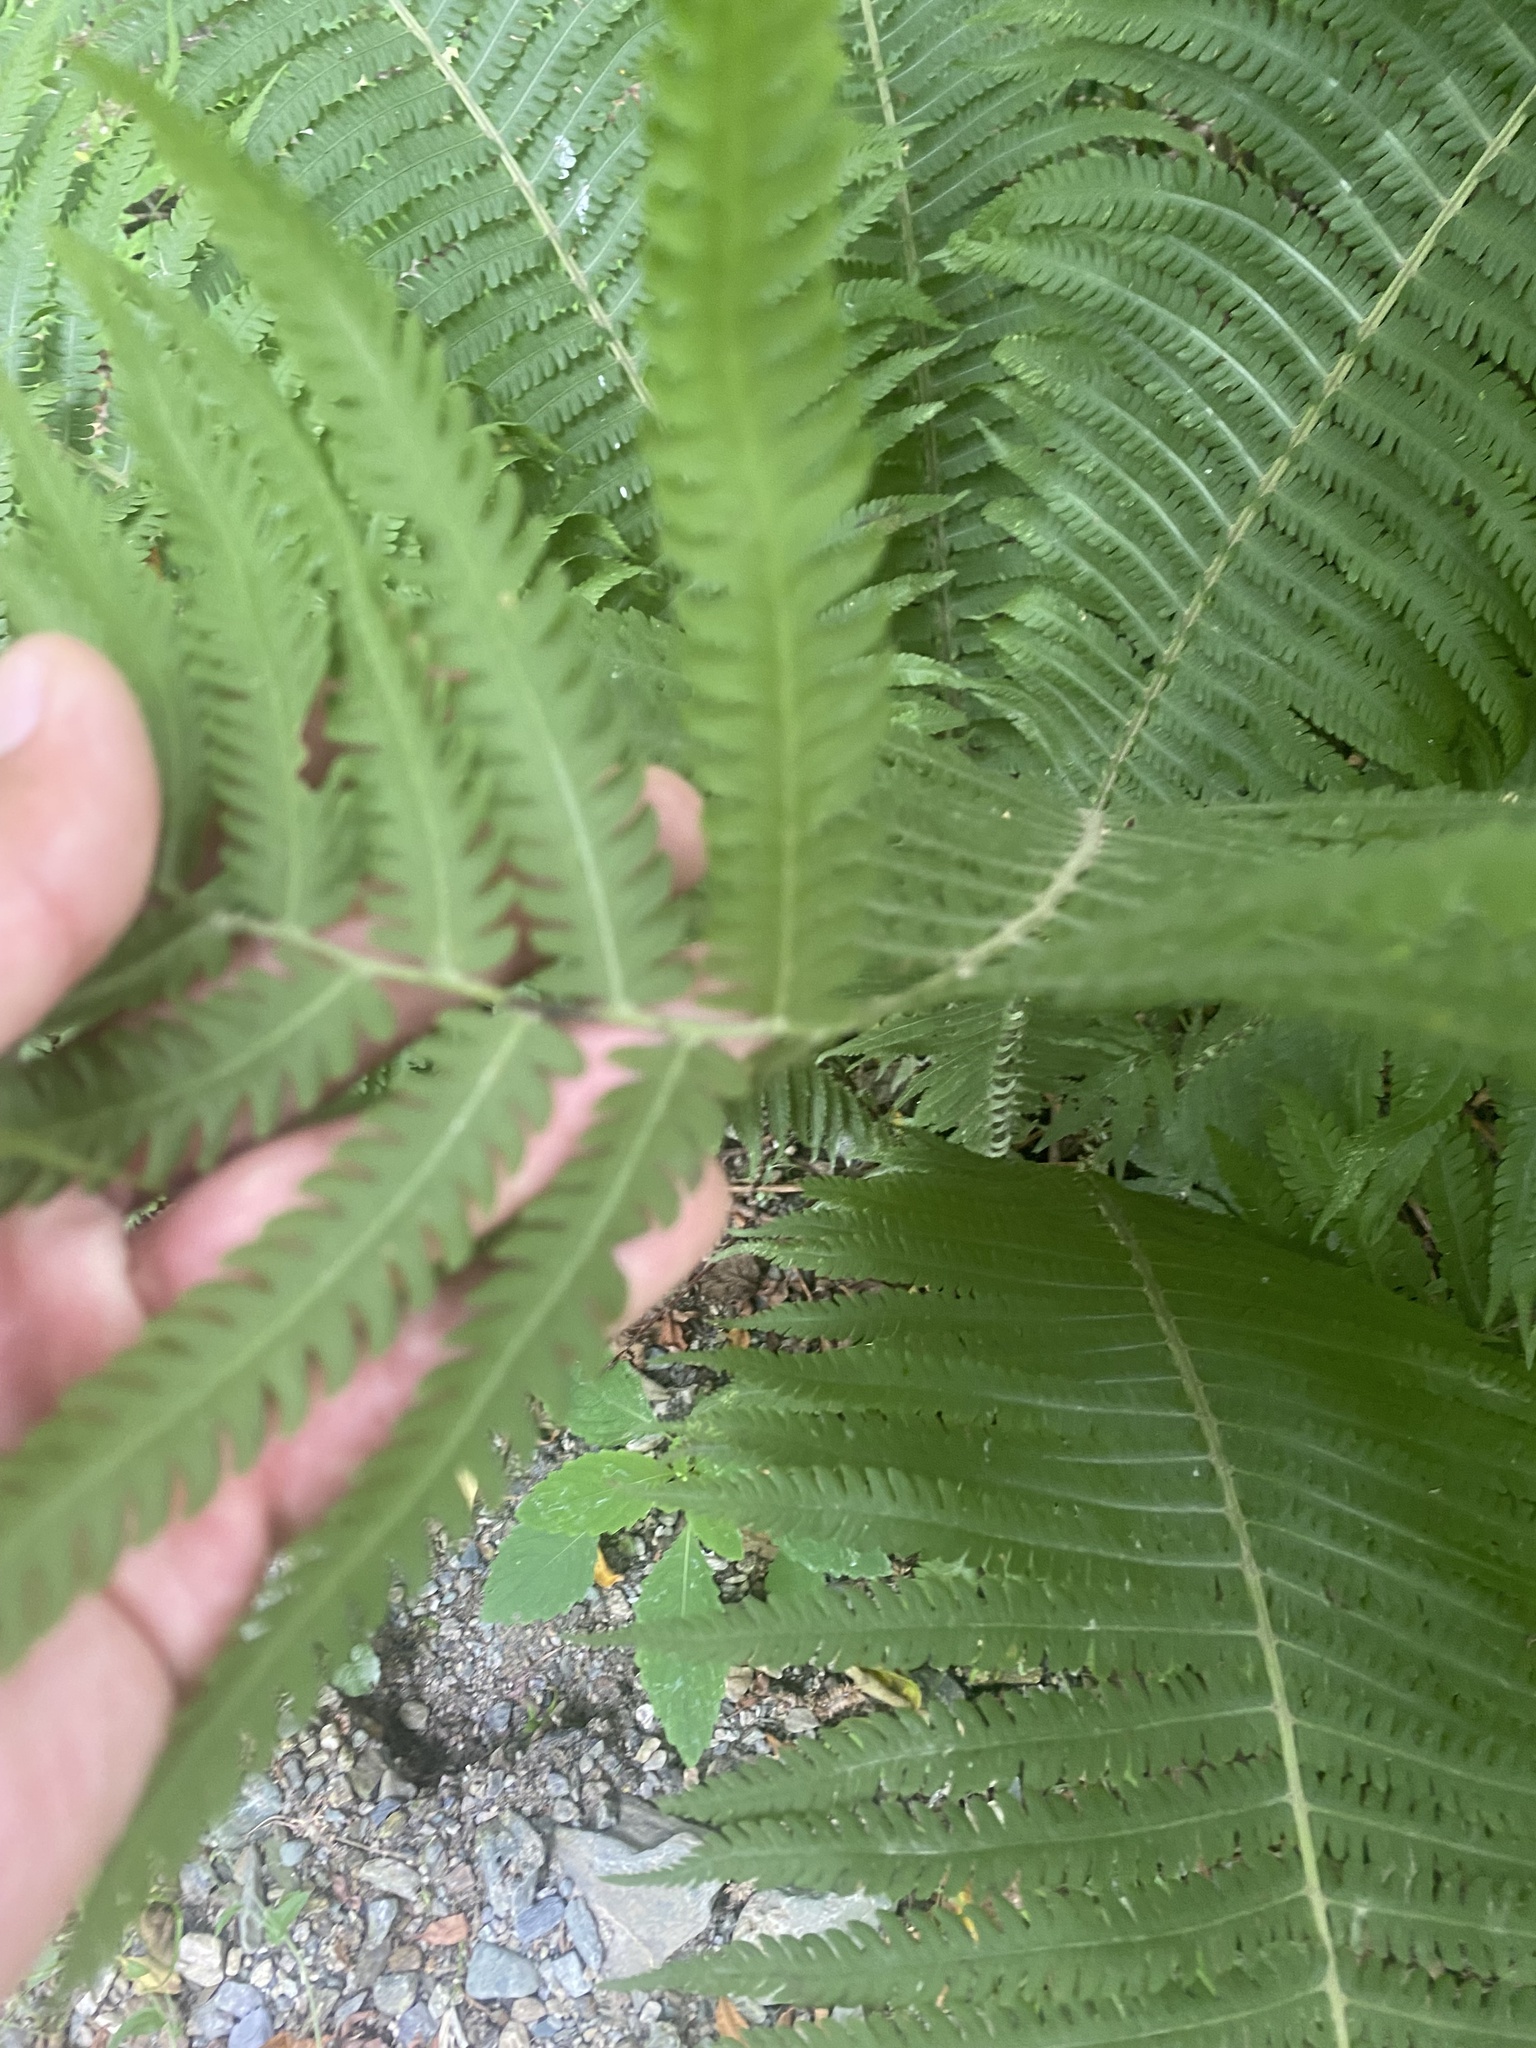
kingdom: Plantae
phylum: Tracheophyta
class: Polypodiopsida
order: Polypodiales
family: Onocleaceae
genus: Matteuccia
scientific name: Matteuccia struthiopteris
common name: Ostrich fern
